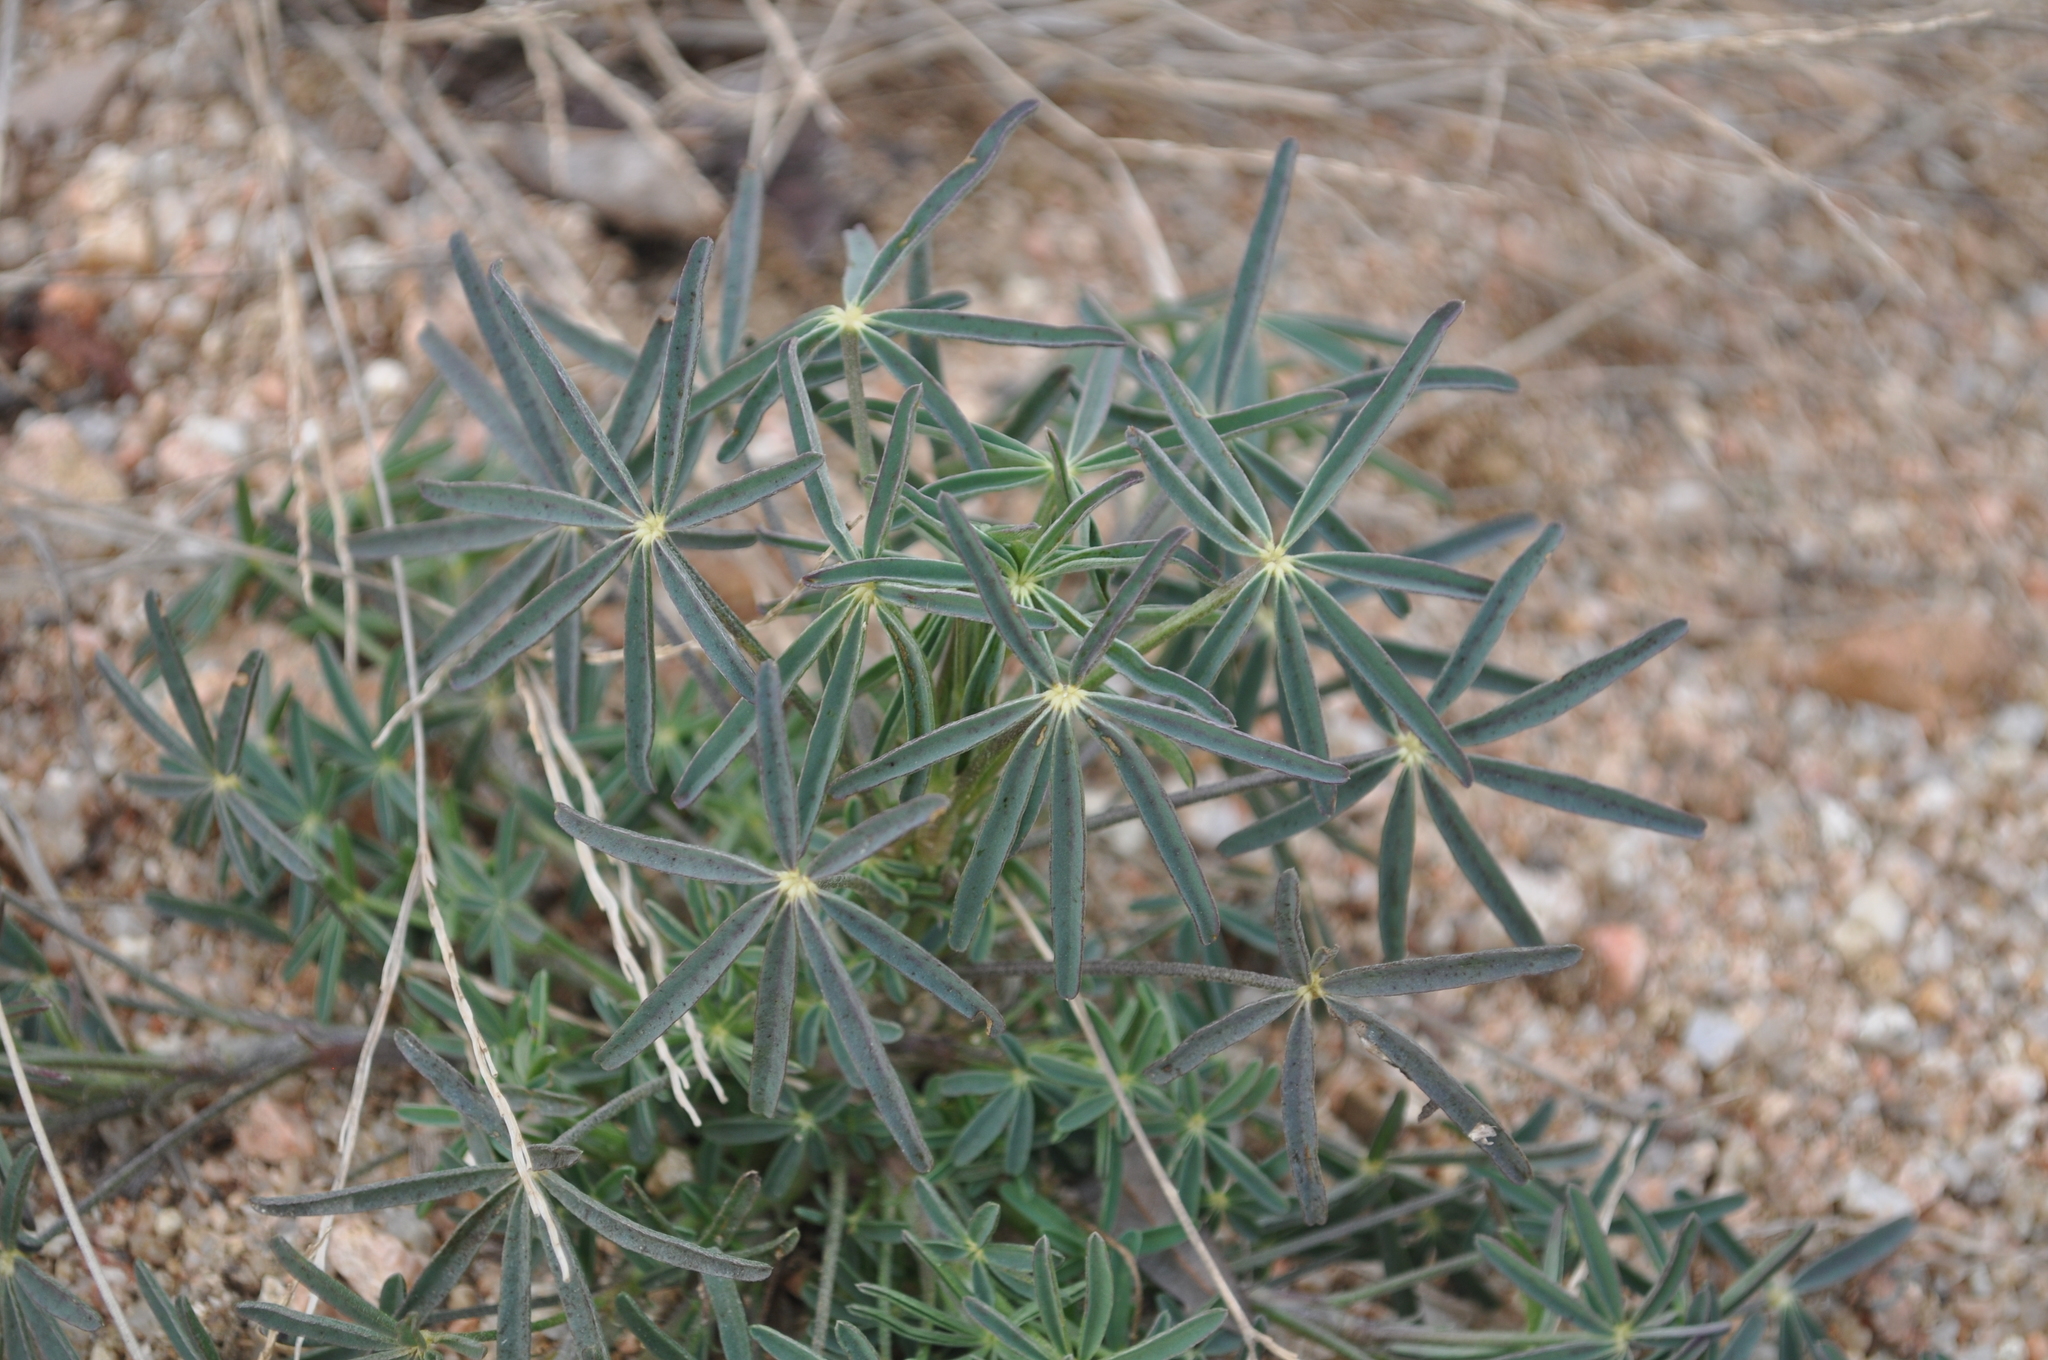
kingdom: Plantae
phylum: Tracheophyta
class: Magnoliopsida
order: Fabales
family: Fabaceae
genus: Lupinus
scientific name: Lupinus angustifolius
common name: Narrow-leaved lupin
